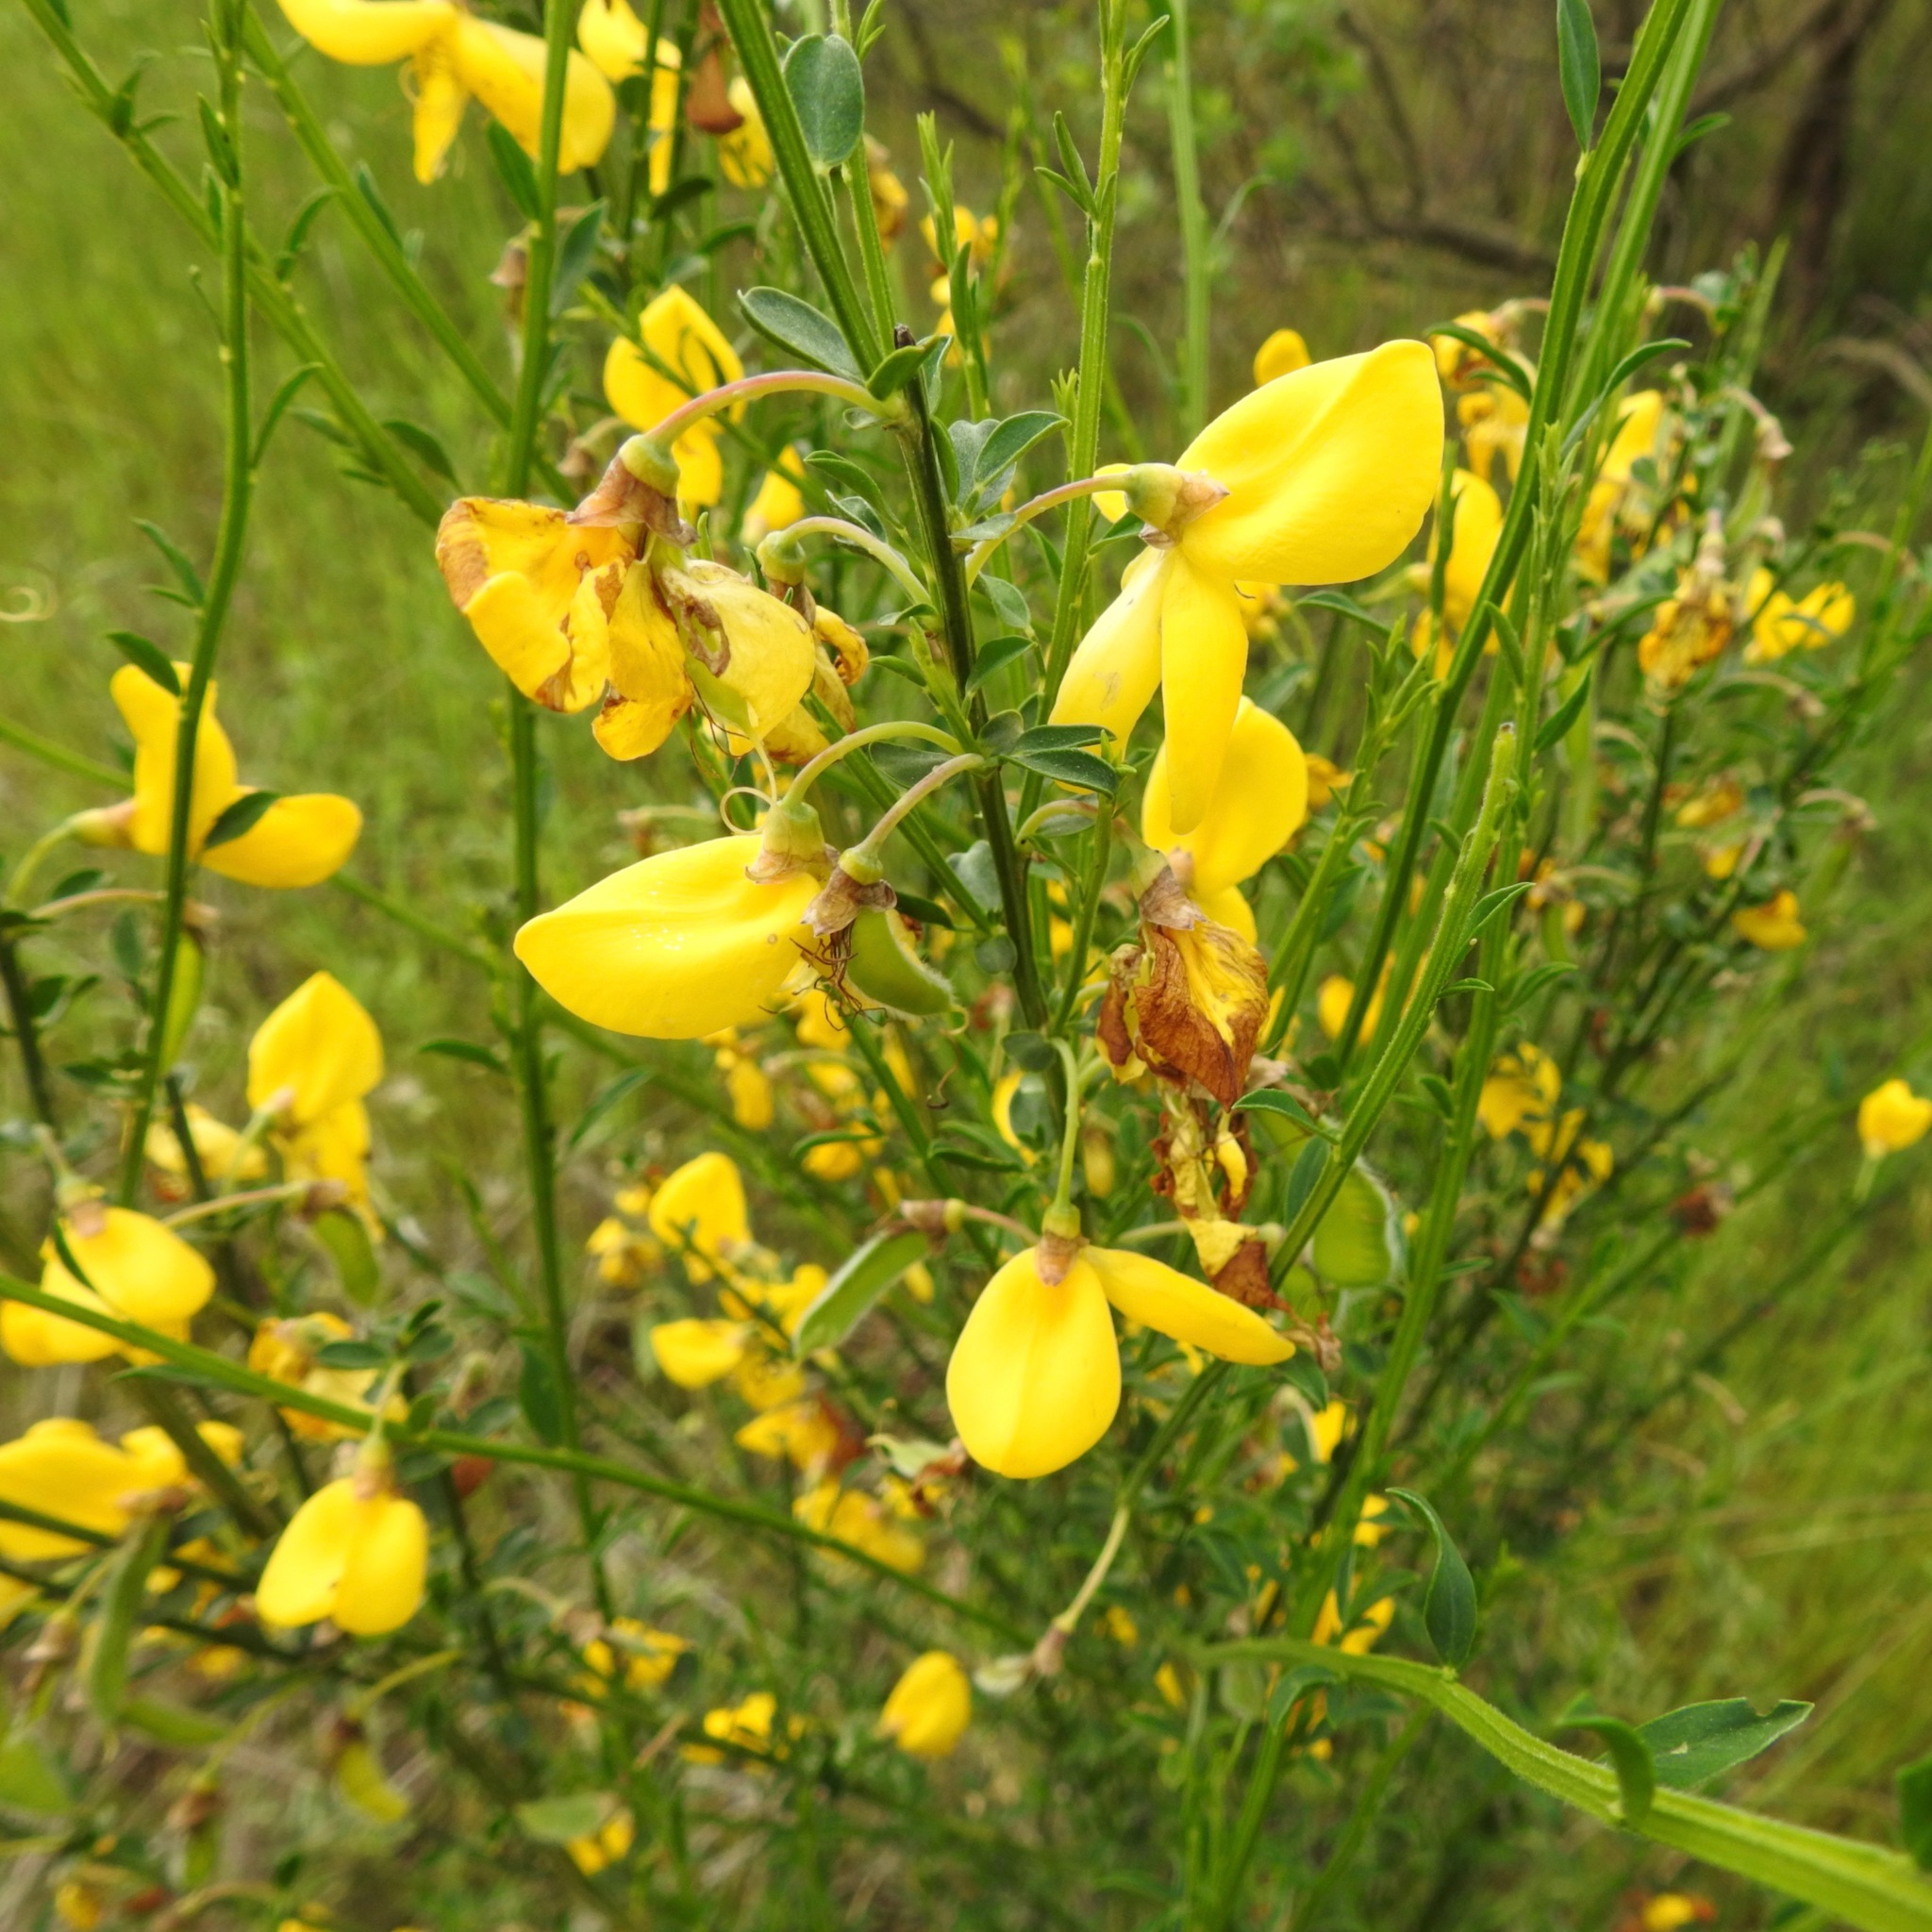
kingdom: Plantae
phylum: Tracheophyta
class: Magnoliopsida
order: Fabales
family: Fabaceae
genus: Cytisus
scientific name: Cytisus scoparius
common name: Scotch broom
